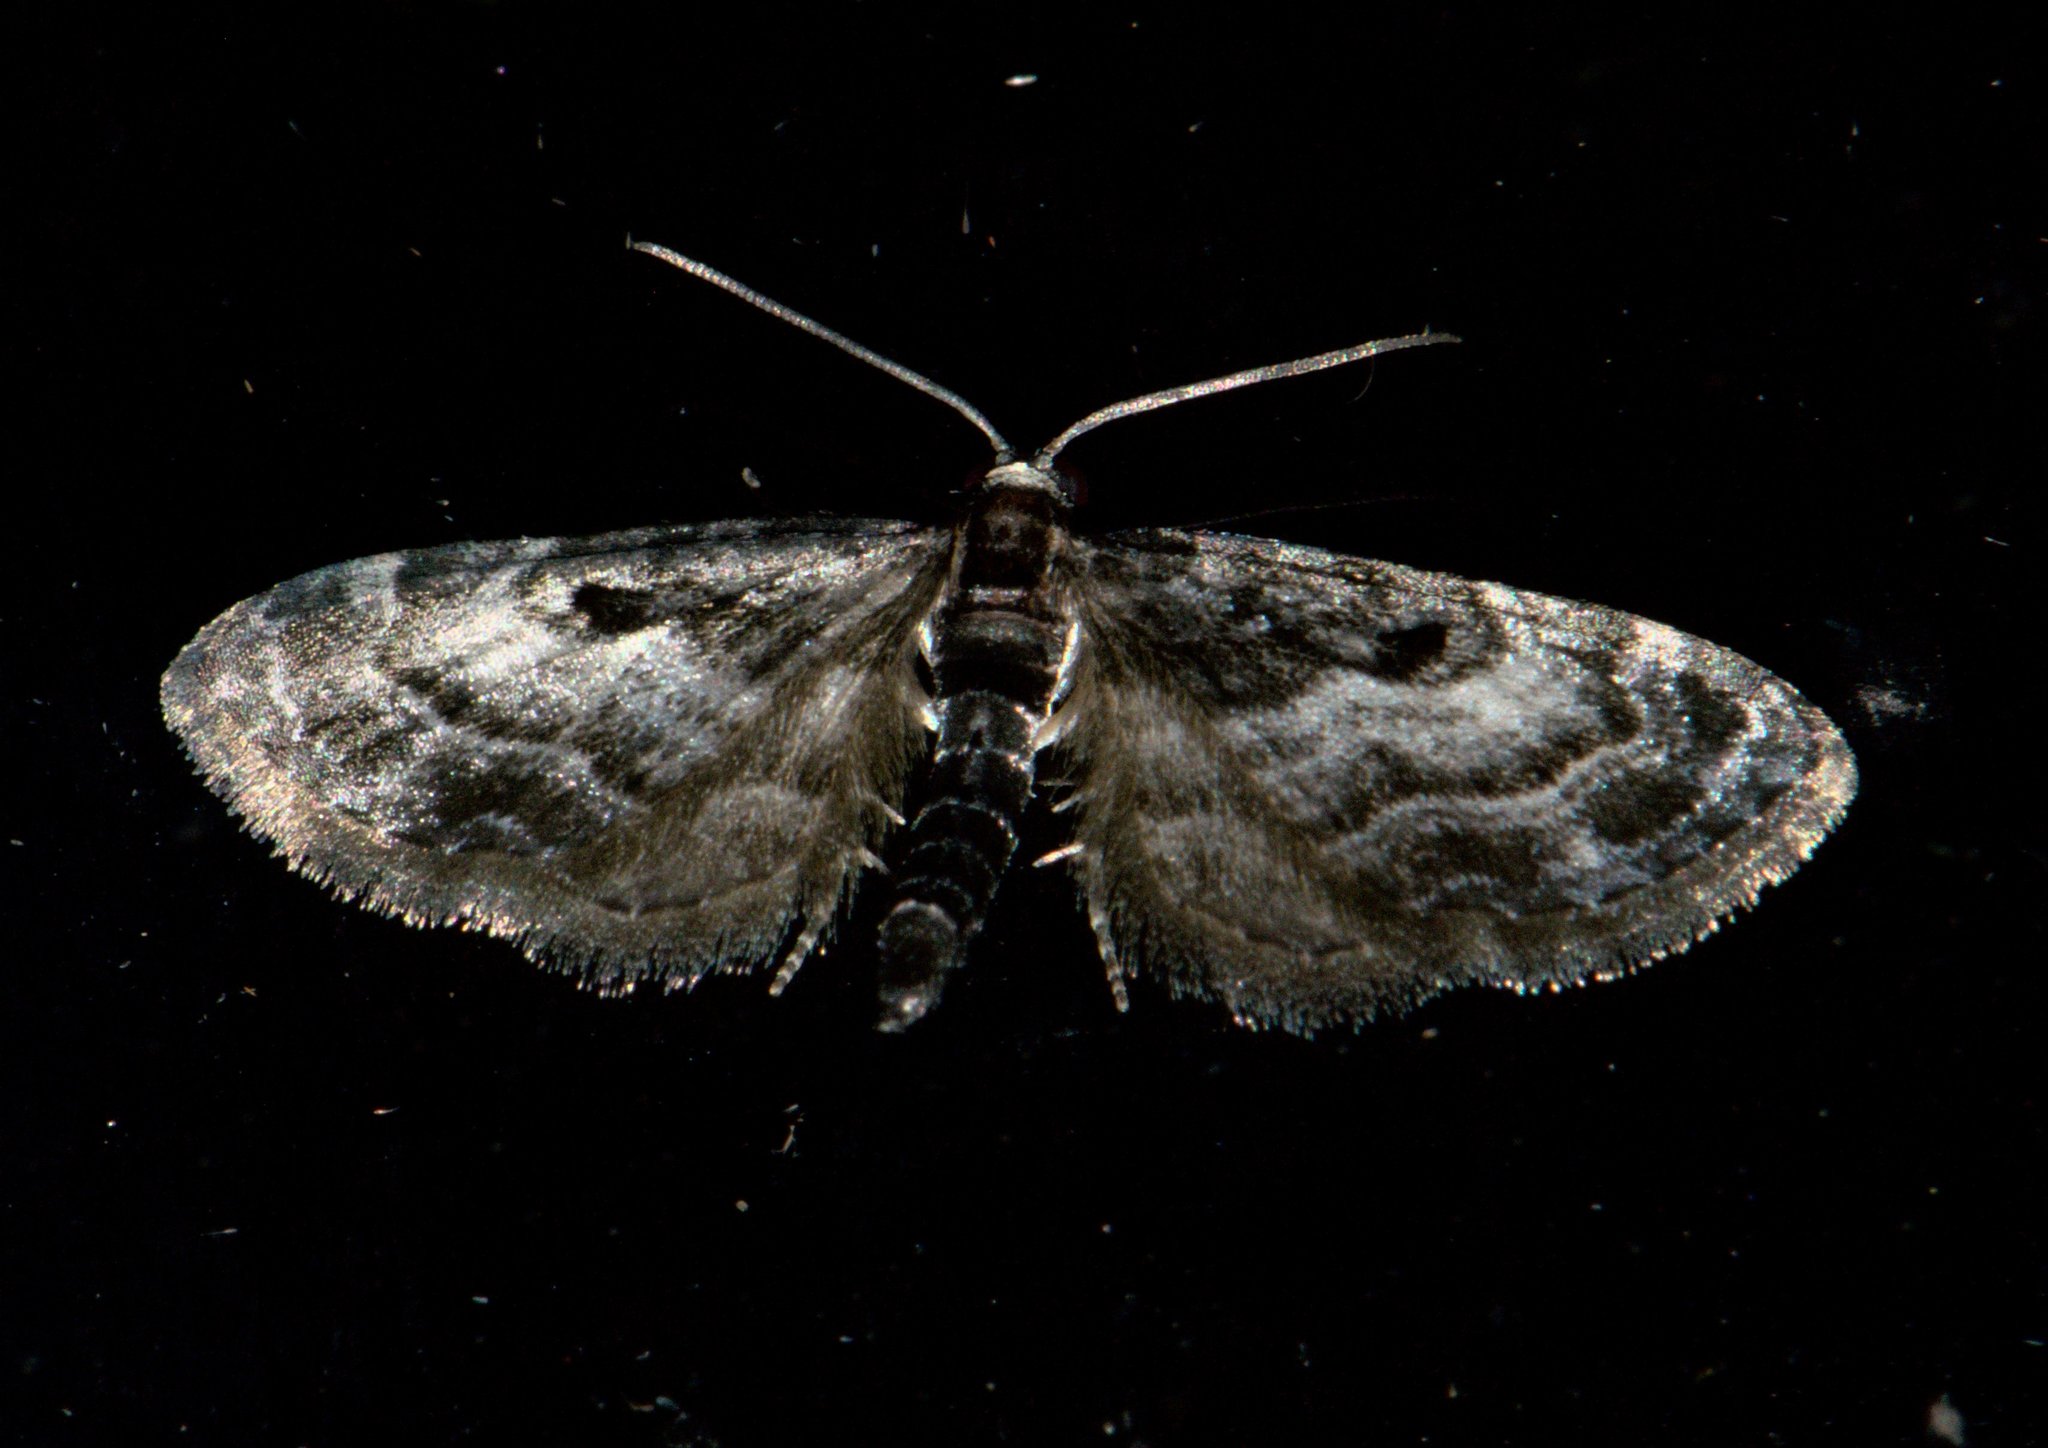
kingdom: Animalia
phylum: Arthropoda
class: Insecta
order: Lepidoptera
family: Geometridae
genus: Eupithecia
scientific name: Eupithecia atrisignis
